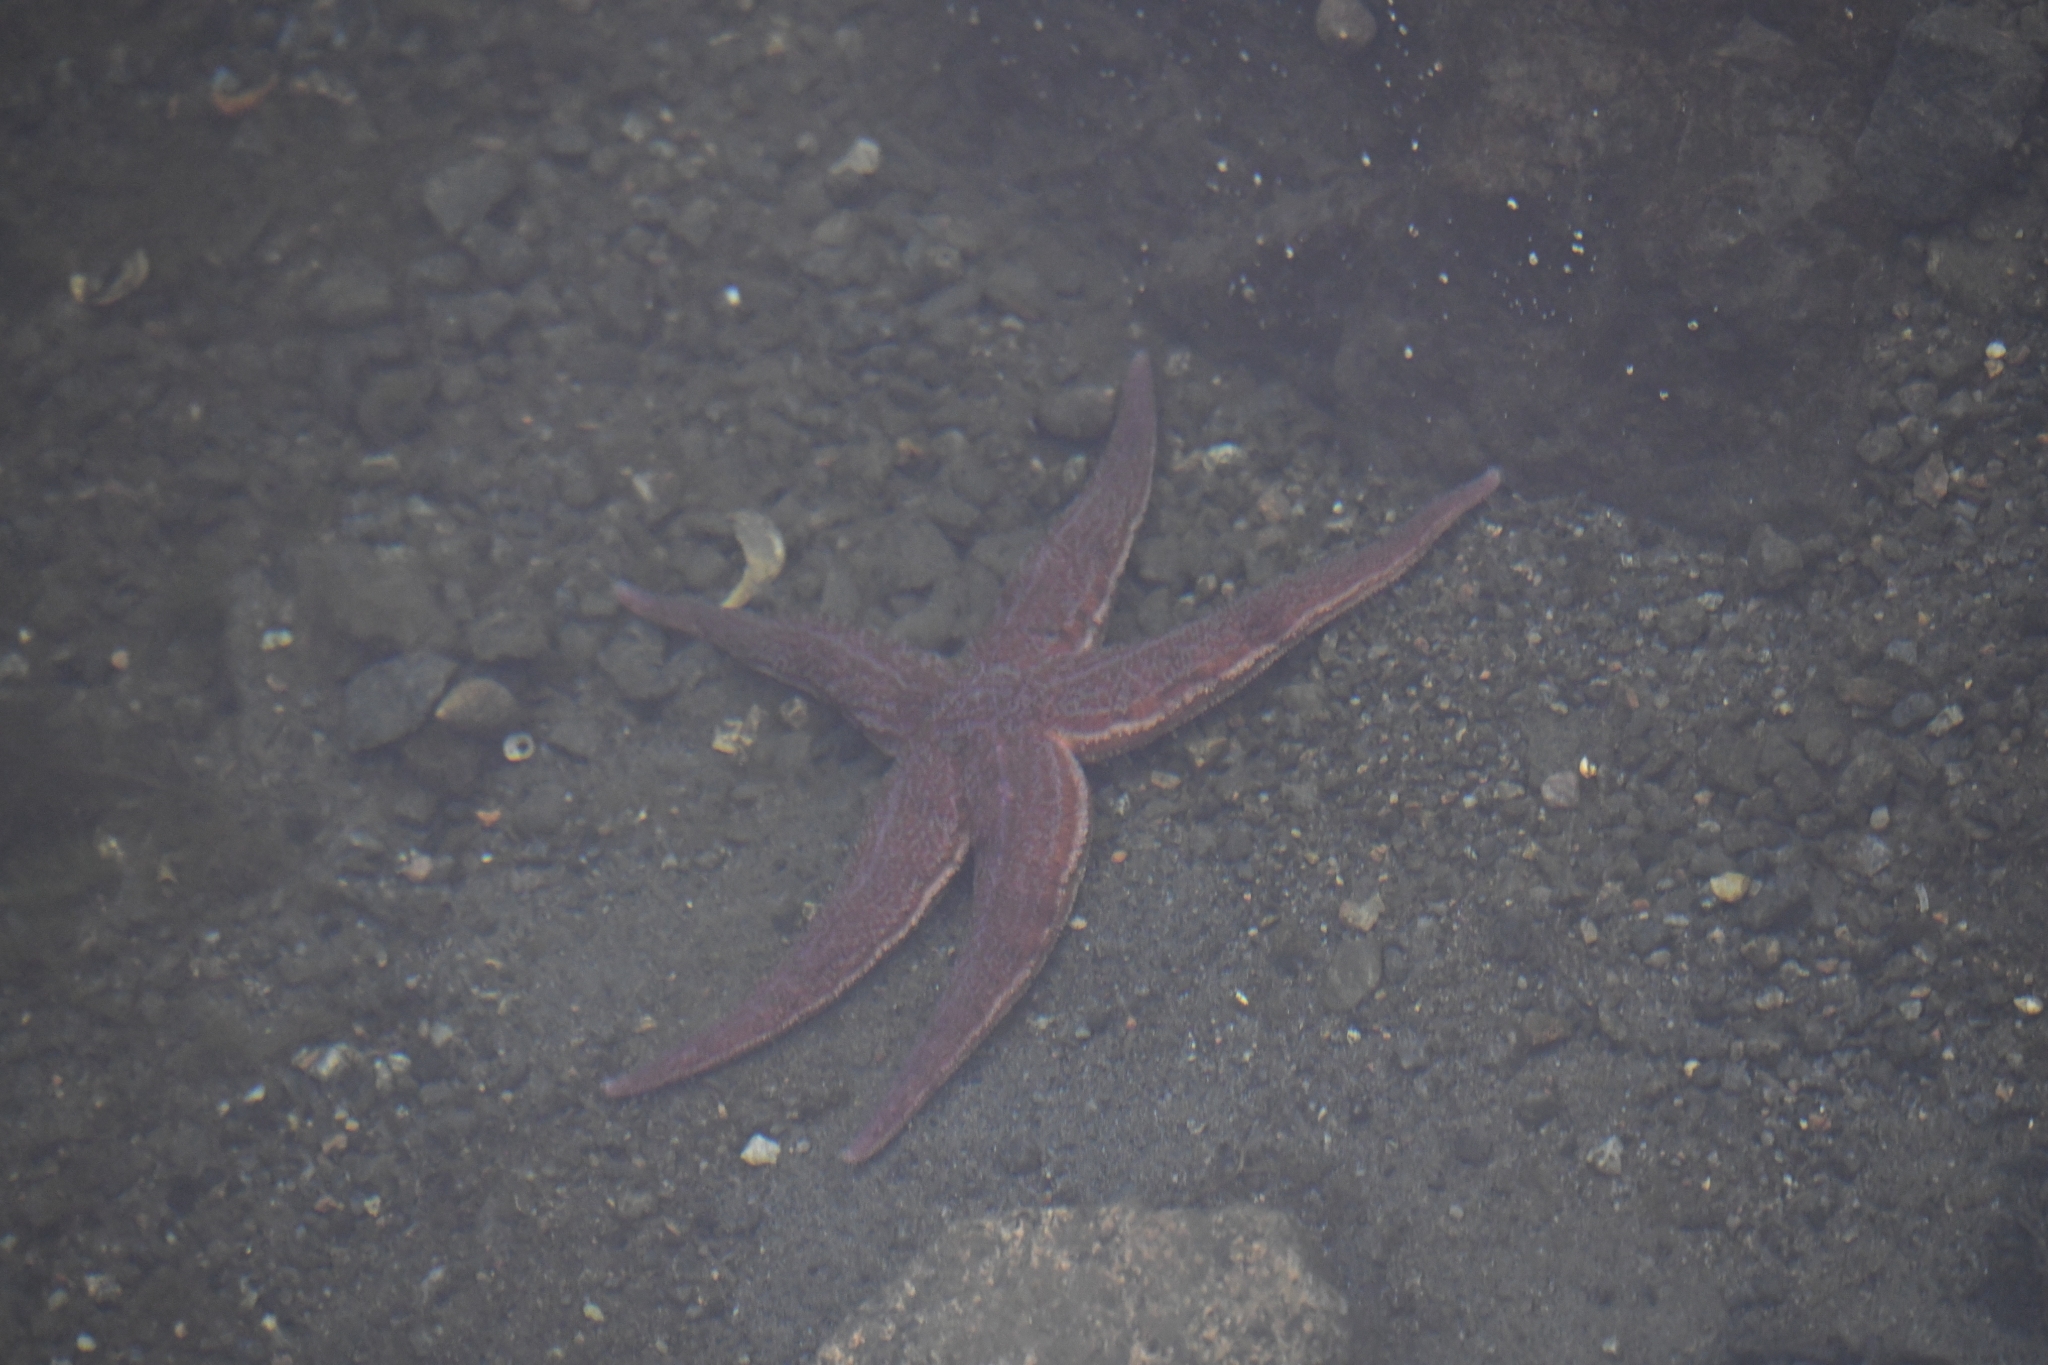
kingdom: Animalia
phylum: Echinodermata
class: Asteroidea
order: Forcipulatida
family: Asteriidae
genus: Asterias
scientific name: Asterias rubens
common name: Common starfish
